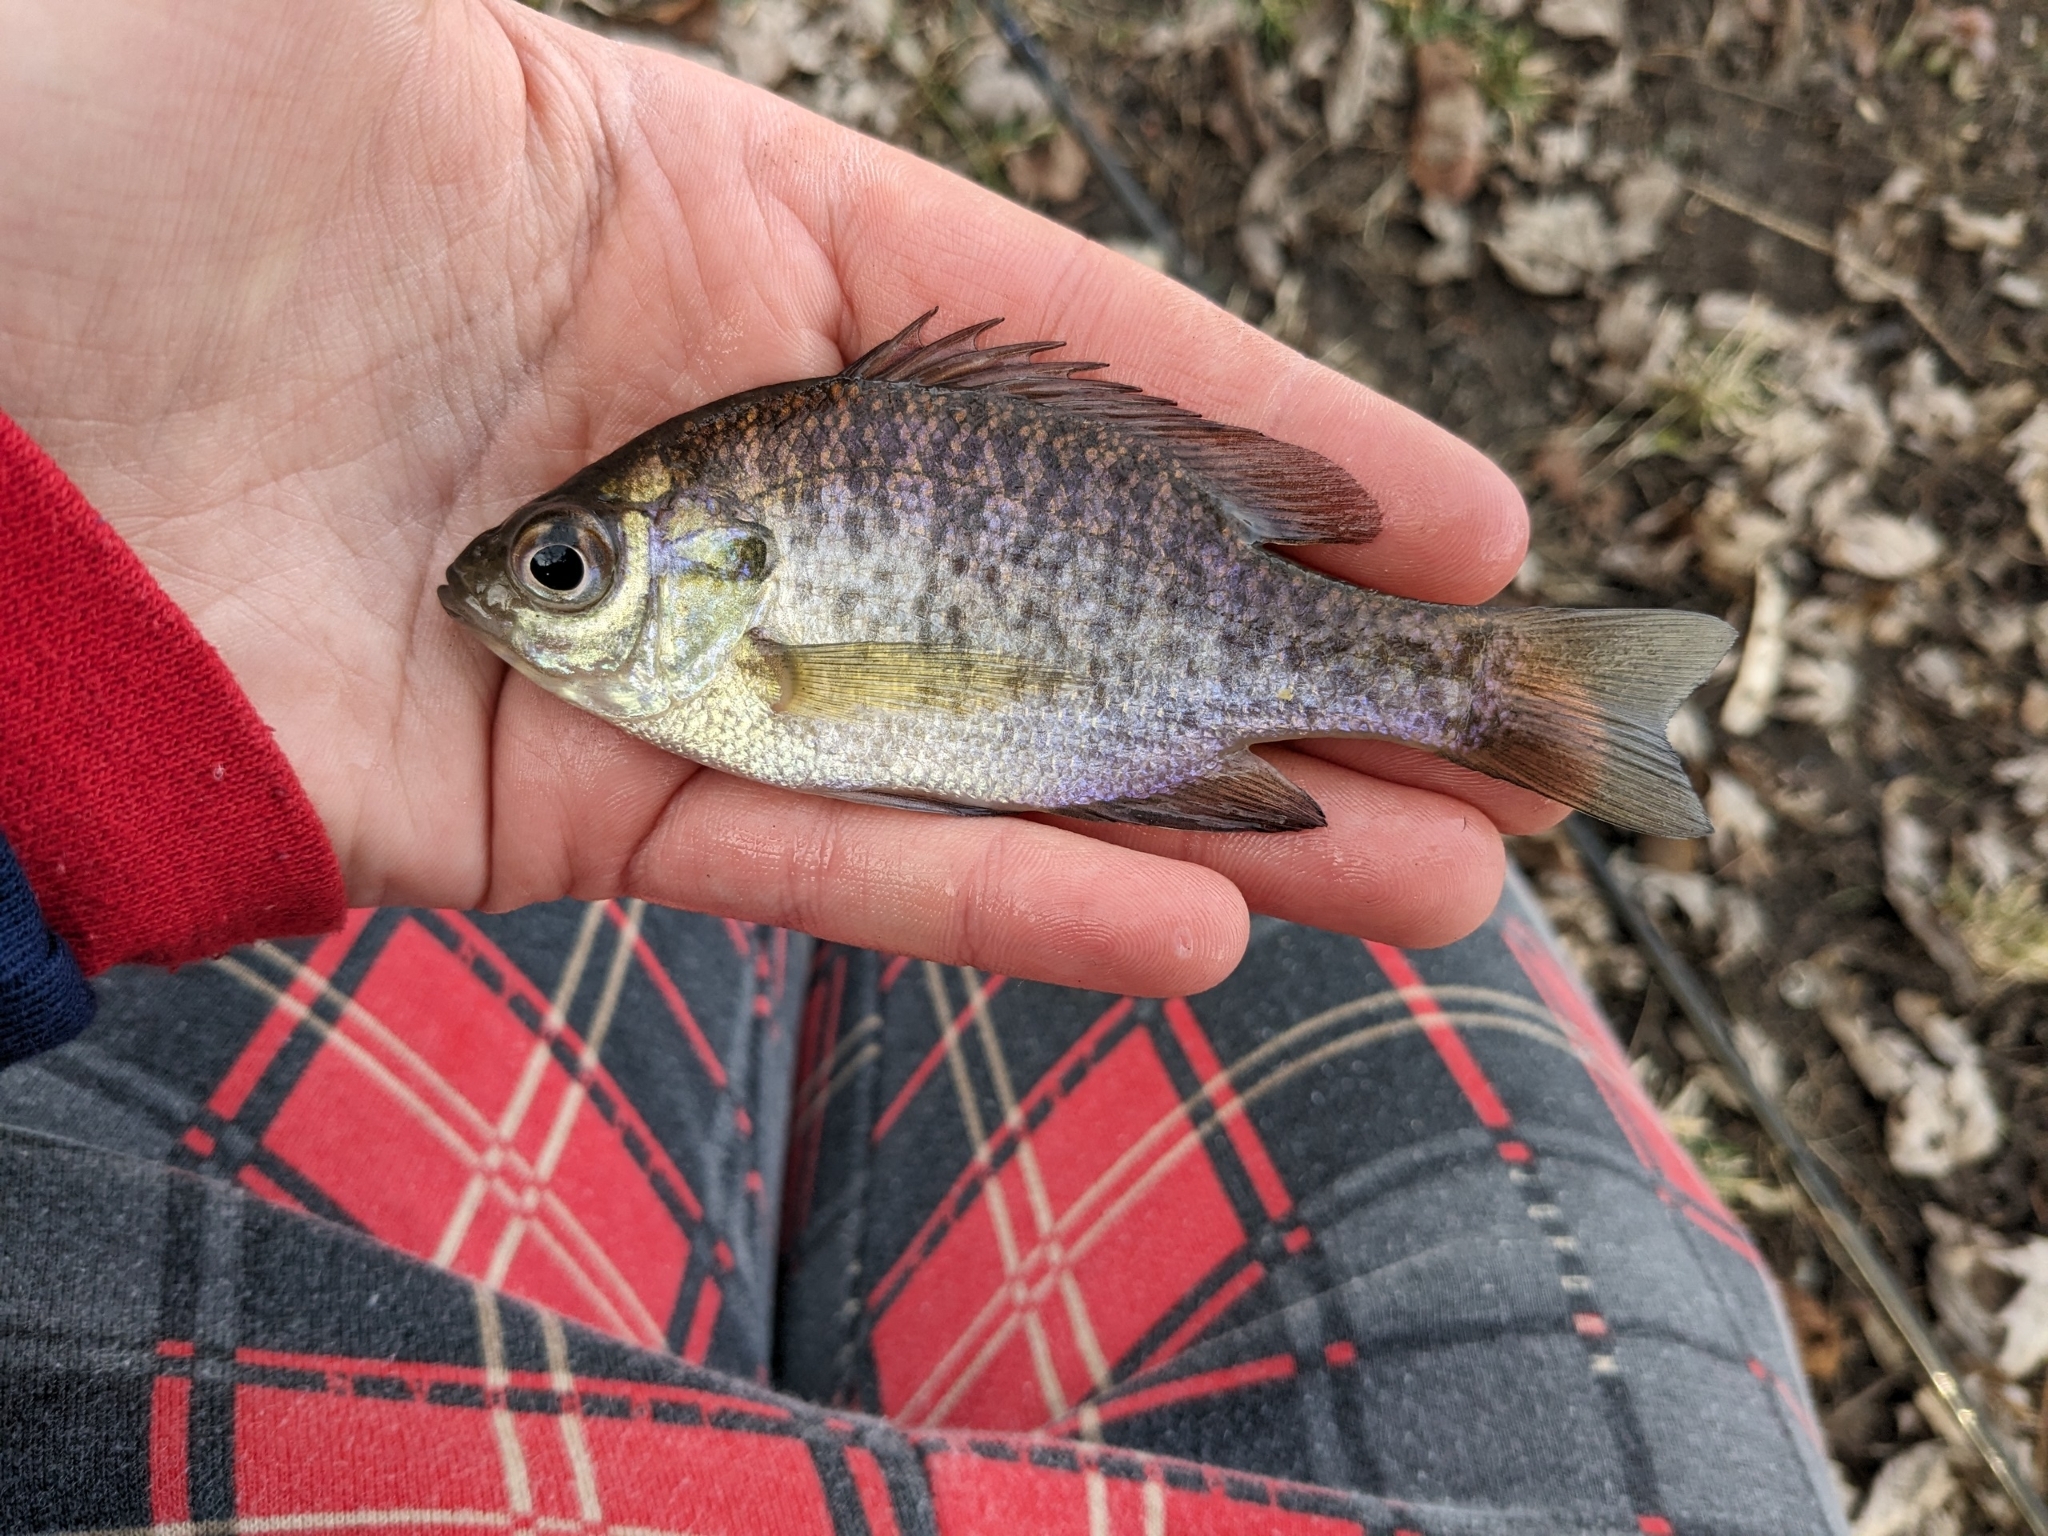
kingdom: Animalia
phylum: Chordata
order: Perciformes
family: Centrarchidae
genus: Lepomis
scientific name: Lepomis macrochirus
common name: Bluegill
